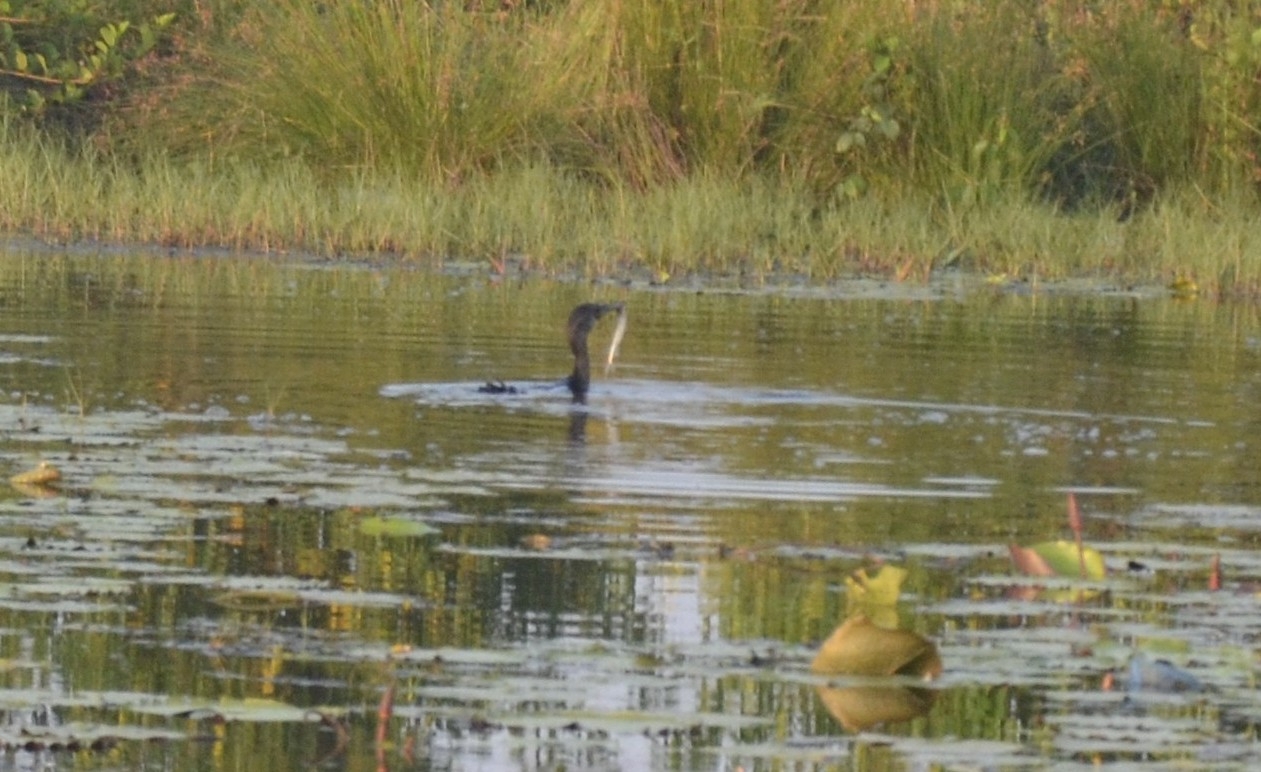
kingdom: Animalia
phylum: Chordata
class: Aves
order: Suliformes
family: Phalacrocoracidae
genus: Microcarbo
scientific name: Microcarbo niger
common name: Little cormorant
